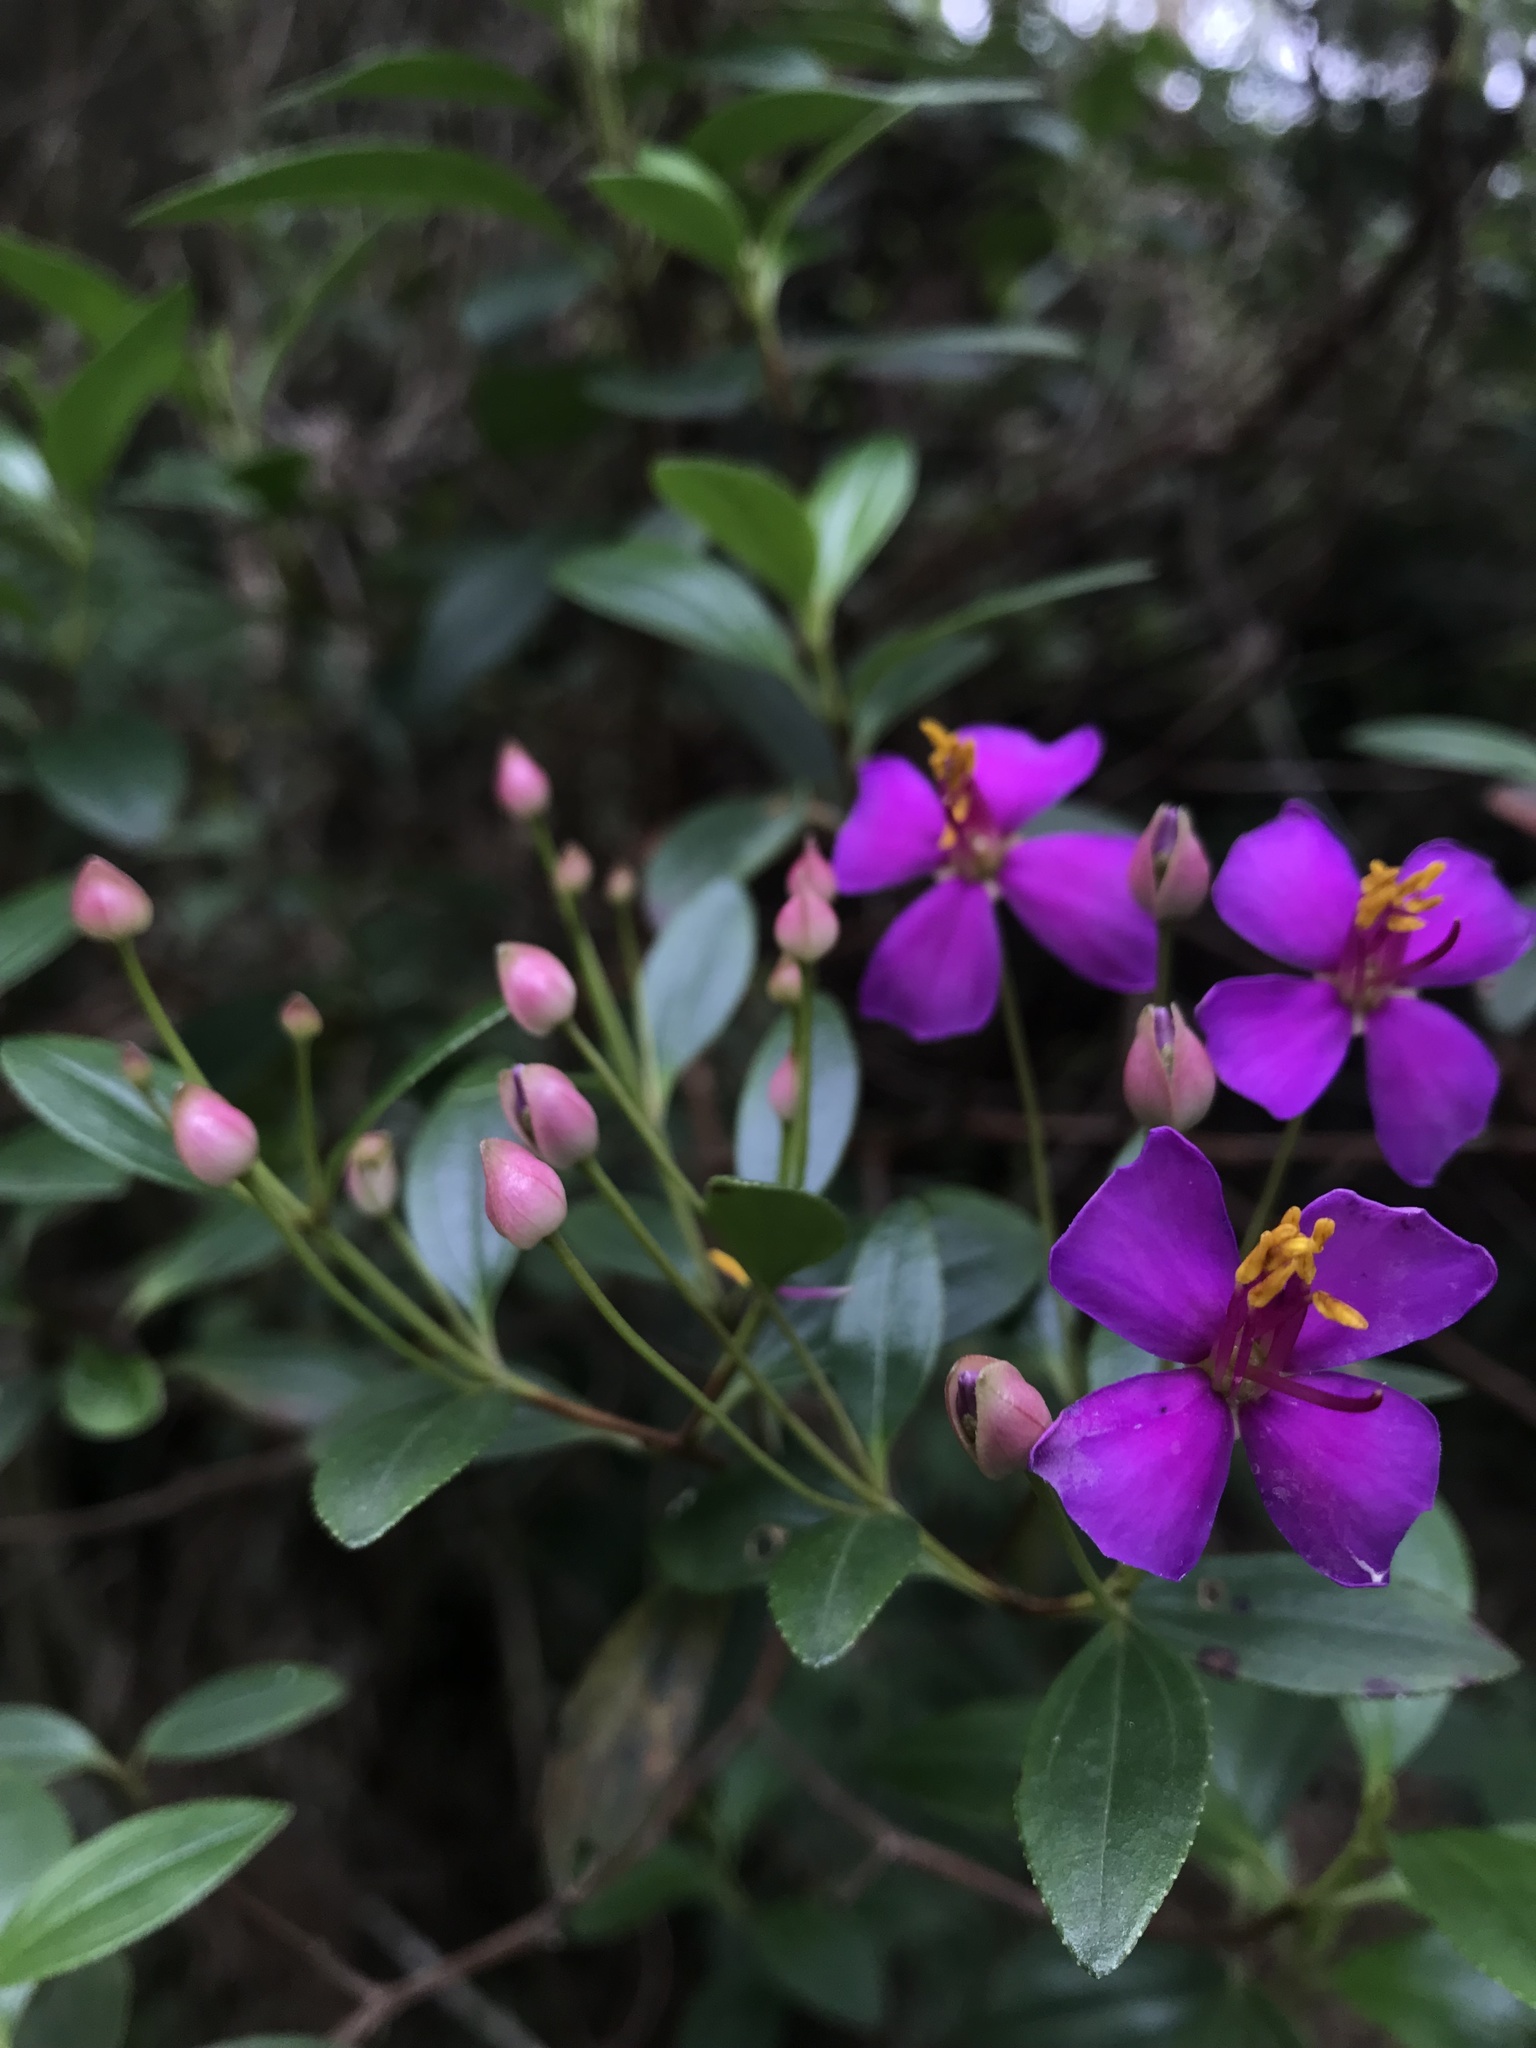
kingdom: Plantae
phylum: Tracheophyta
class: Magnoliopsida
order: Myrtales
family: Melastomataceae
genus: Bucquetia
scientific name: Bucquetia glutinosa
